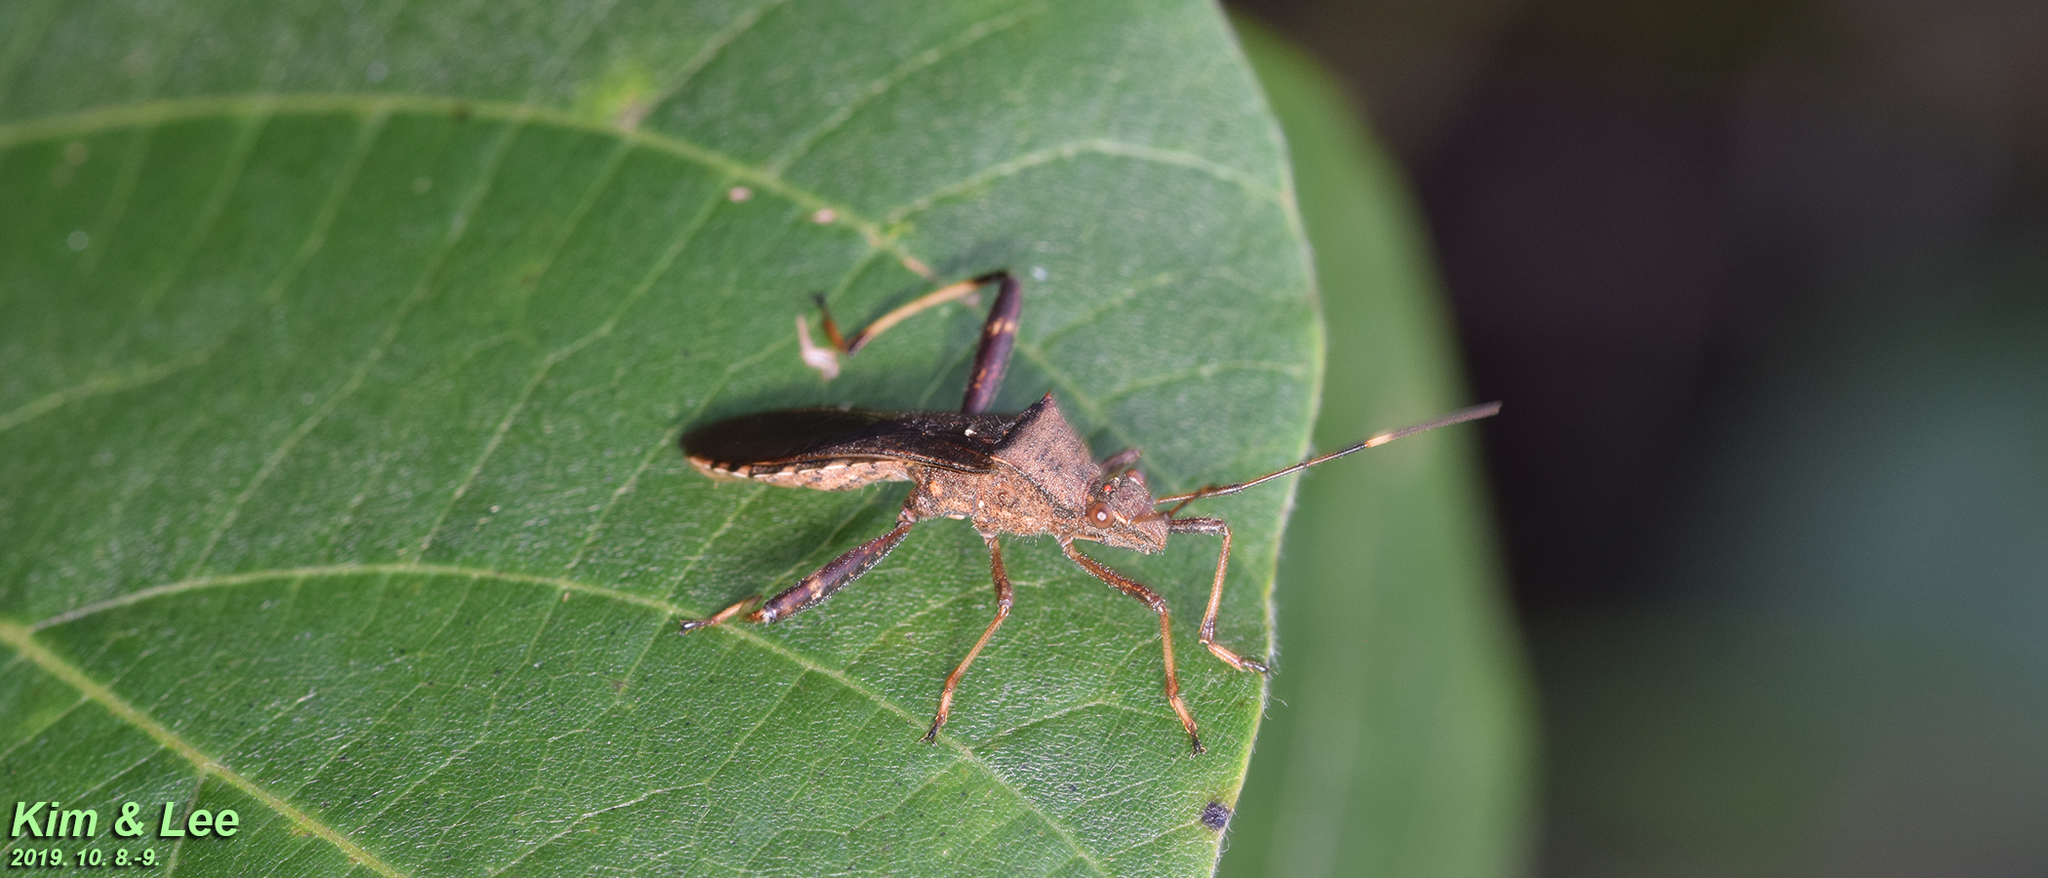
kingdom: Animalia
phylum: Arthropoda
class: Insecta
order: Hemiptera
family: Alydidae
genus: Riptortus
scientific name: Riptortus pedestris
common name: Bean bug
